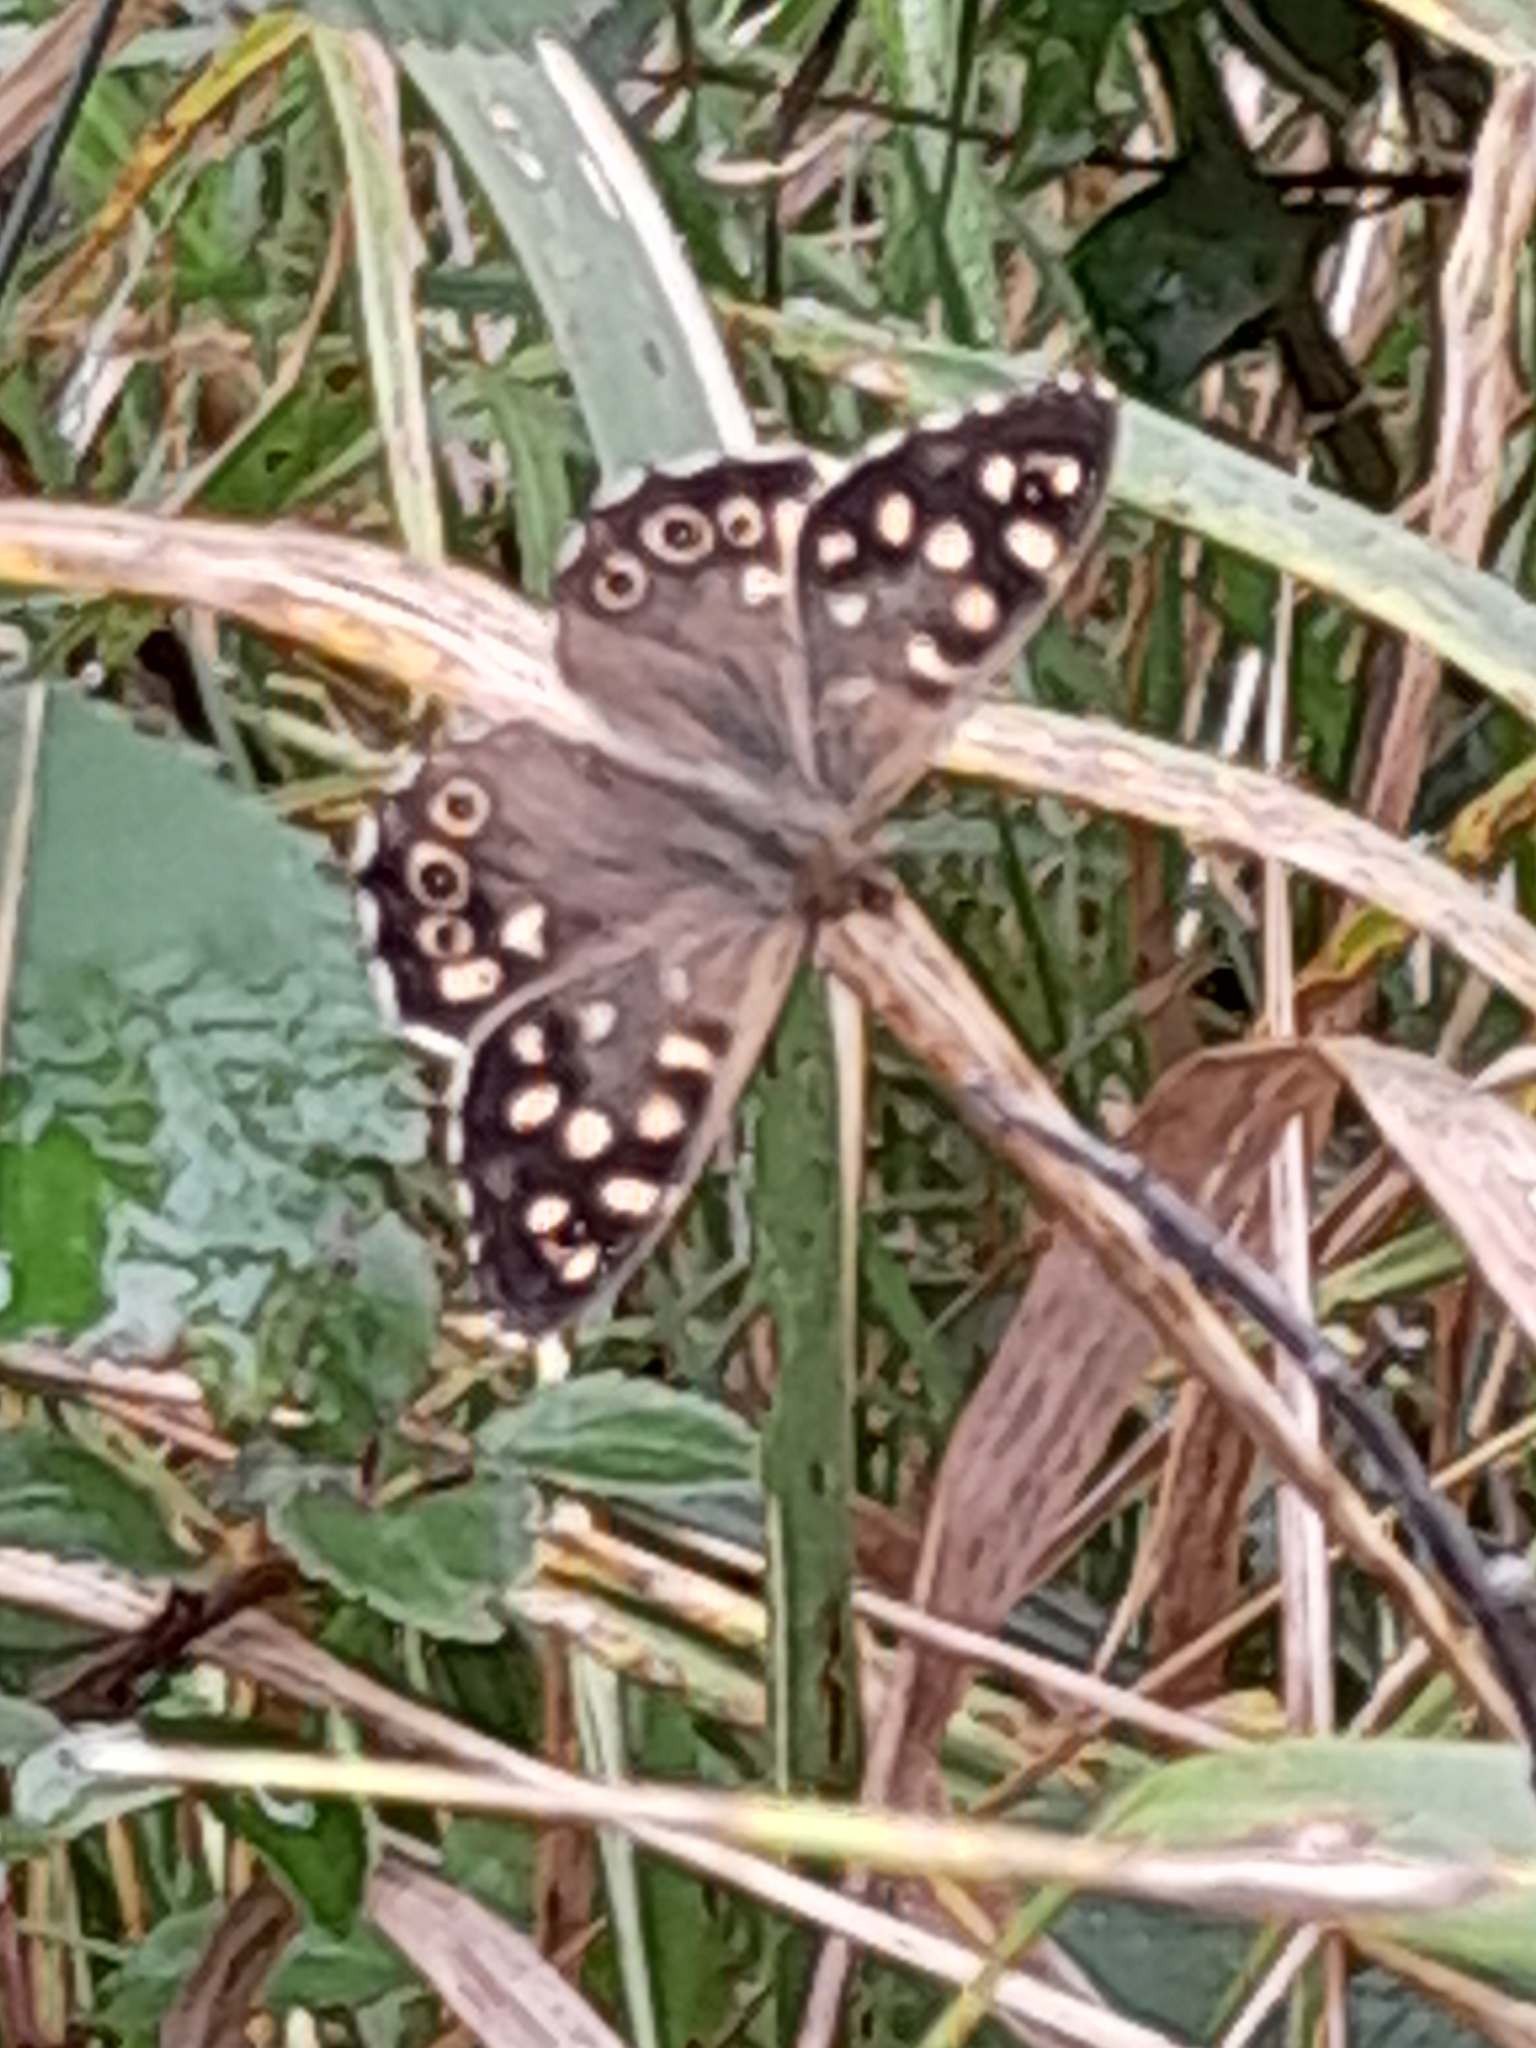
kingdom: Animalia
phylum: Arthropoda
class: Insecta
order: Lepidoptera
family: Nymphalidae
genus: Pararge
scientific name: Pararge aegeria
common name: Speckled wood
